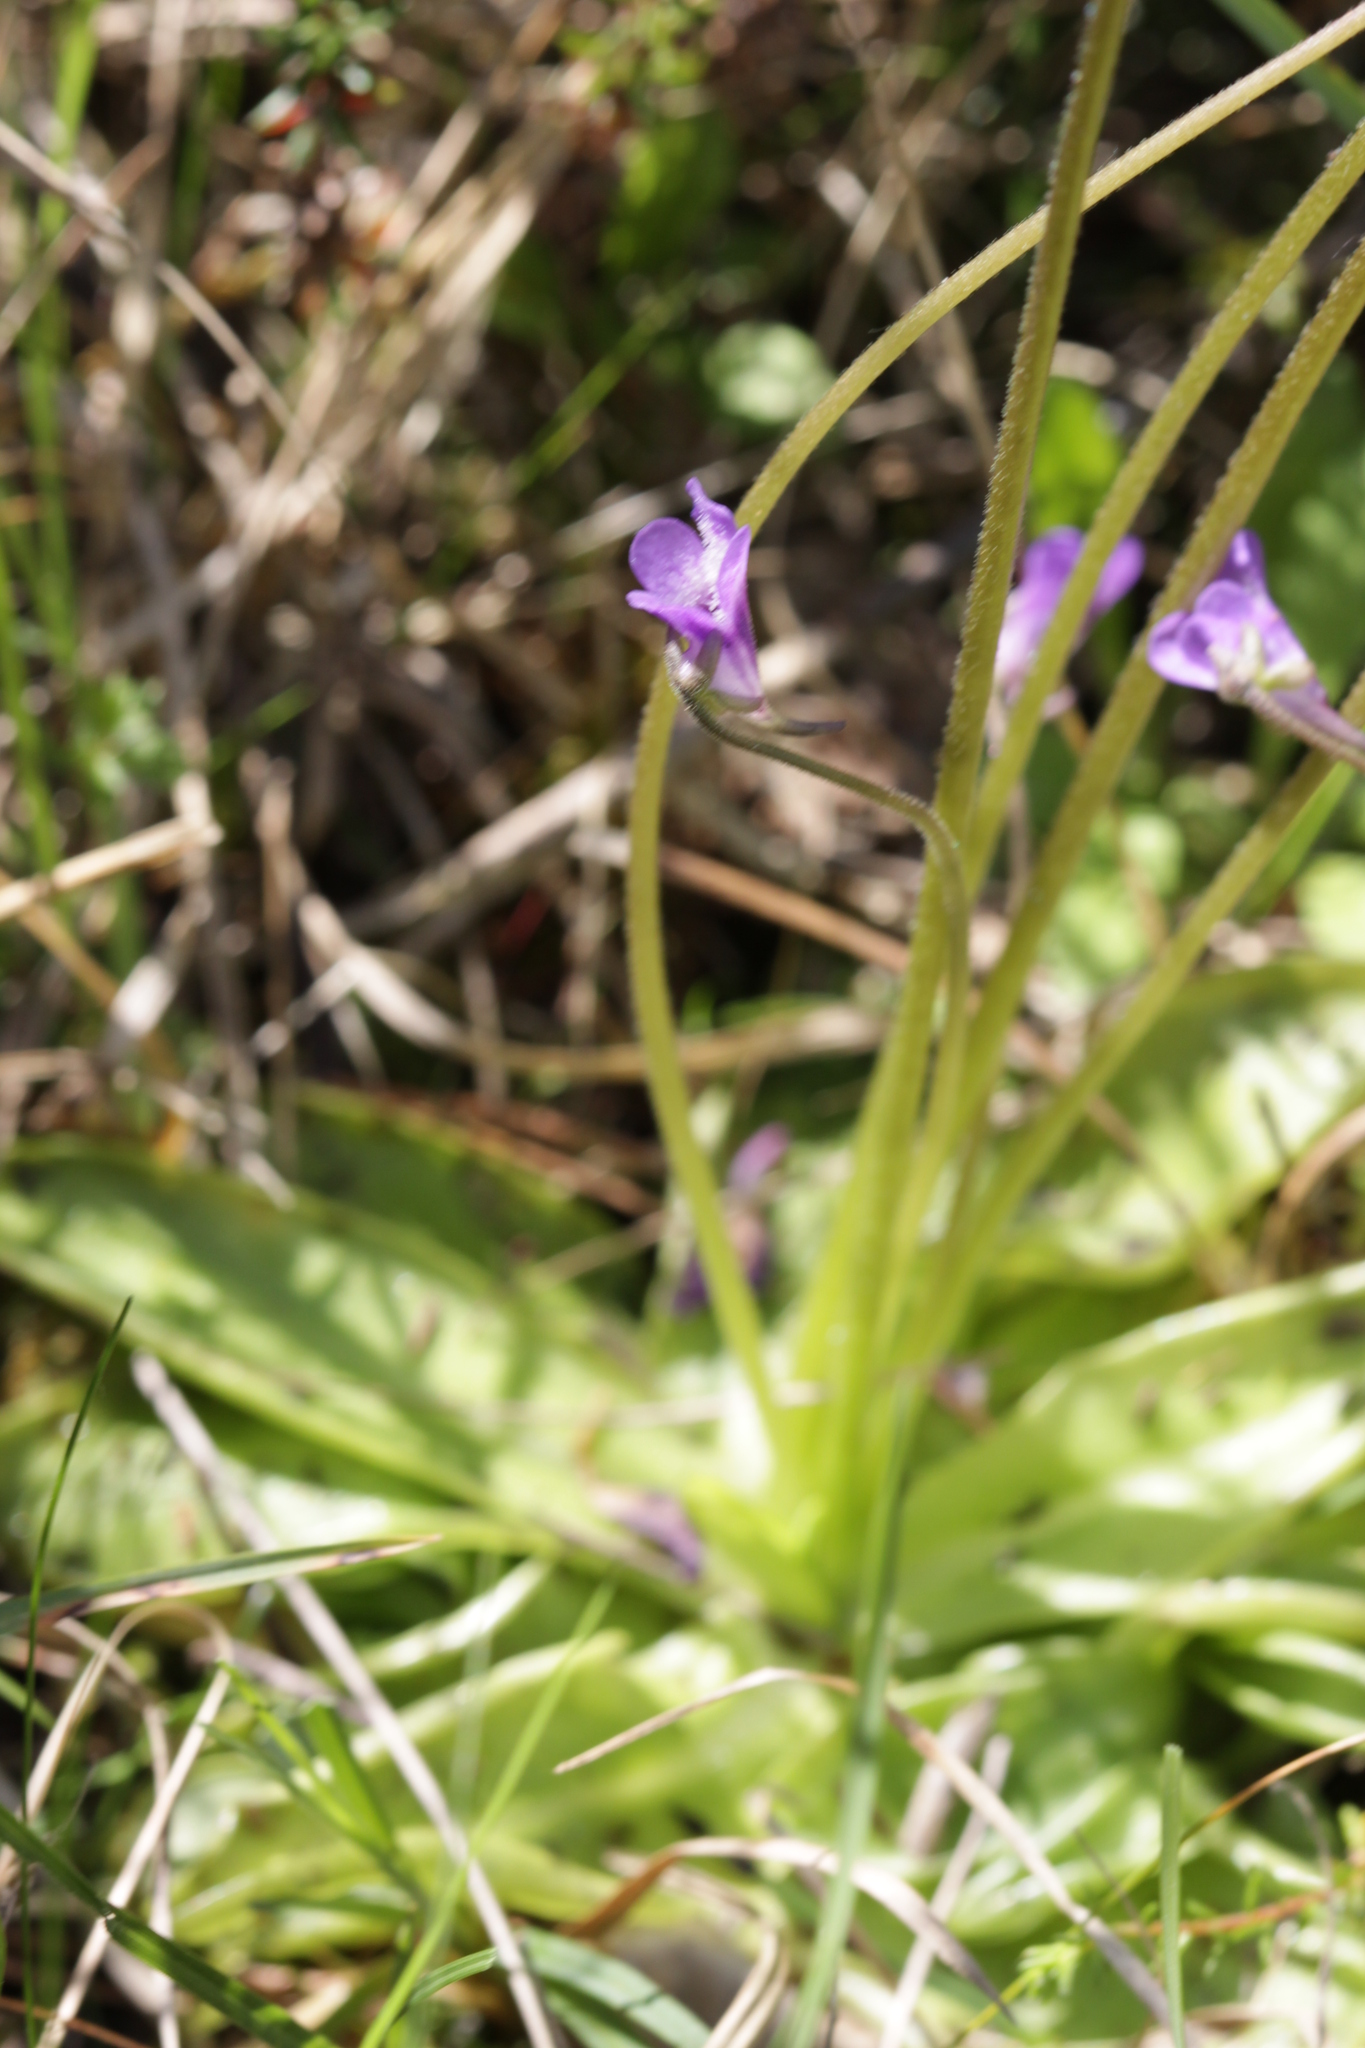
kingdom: Plantae
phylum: Tracheophyta
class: Magnoliopsida
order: Lamiales
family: Lentibulariaceae
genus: Pinguicula
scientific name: Pinguicula vulgaris
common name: Common butterwort
